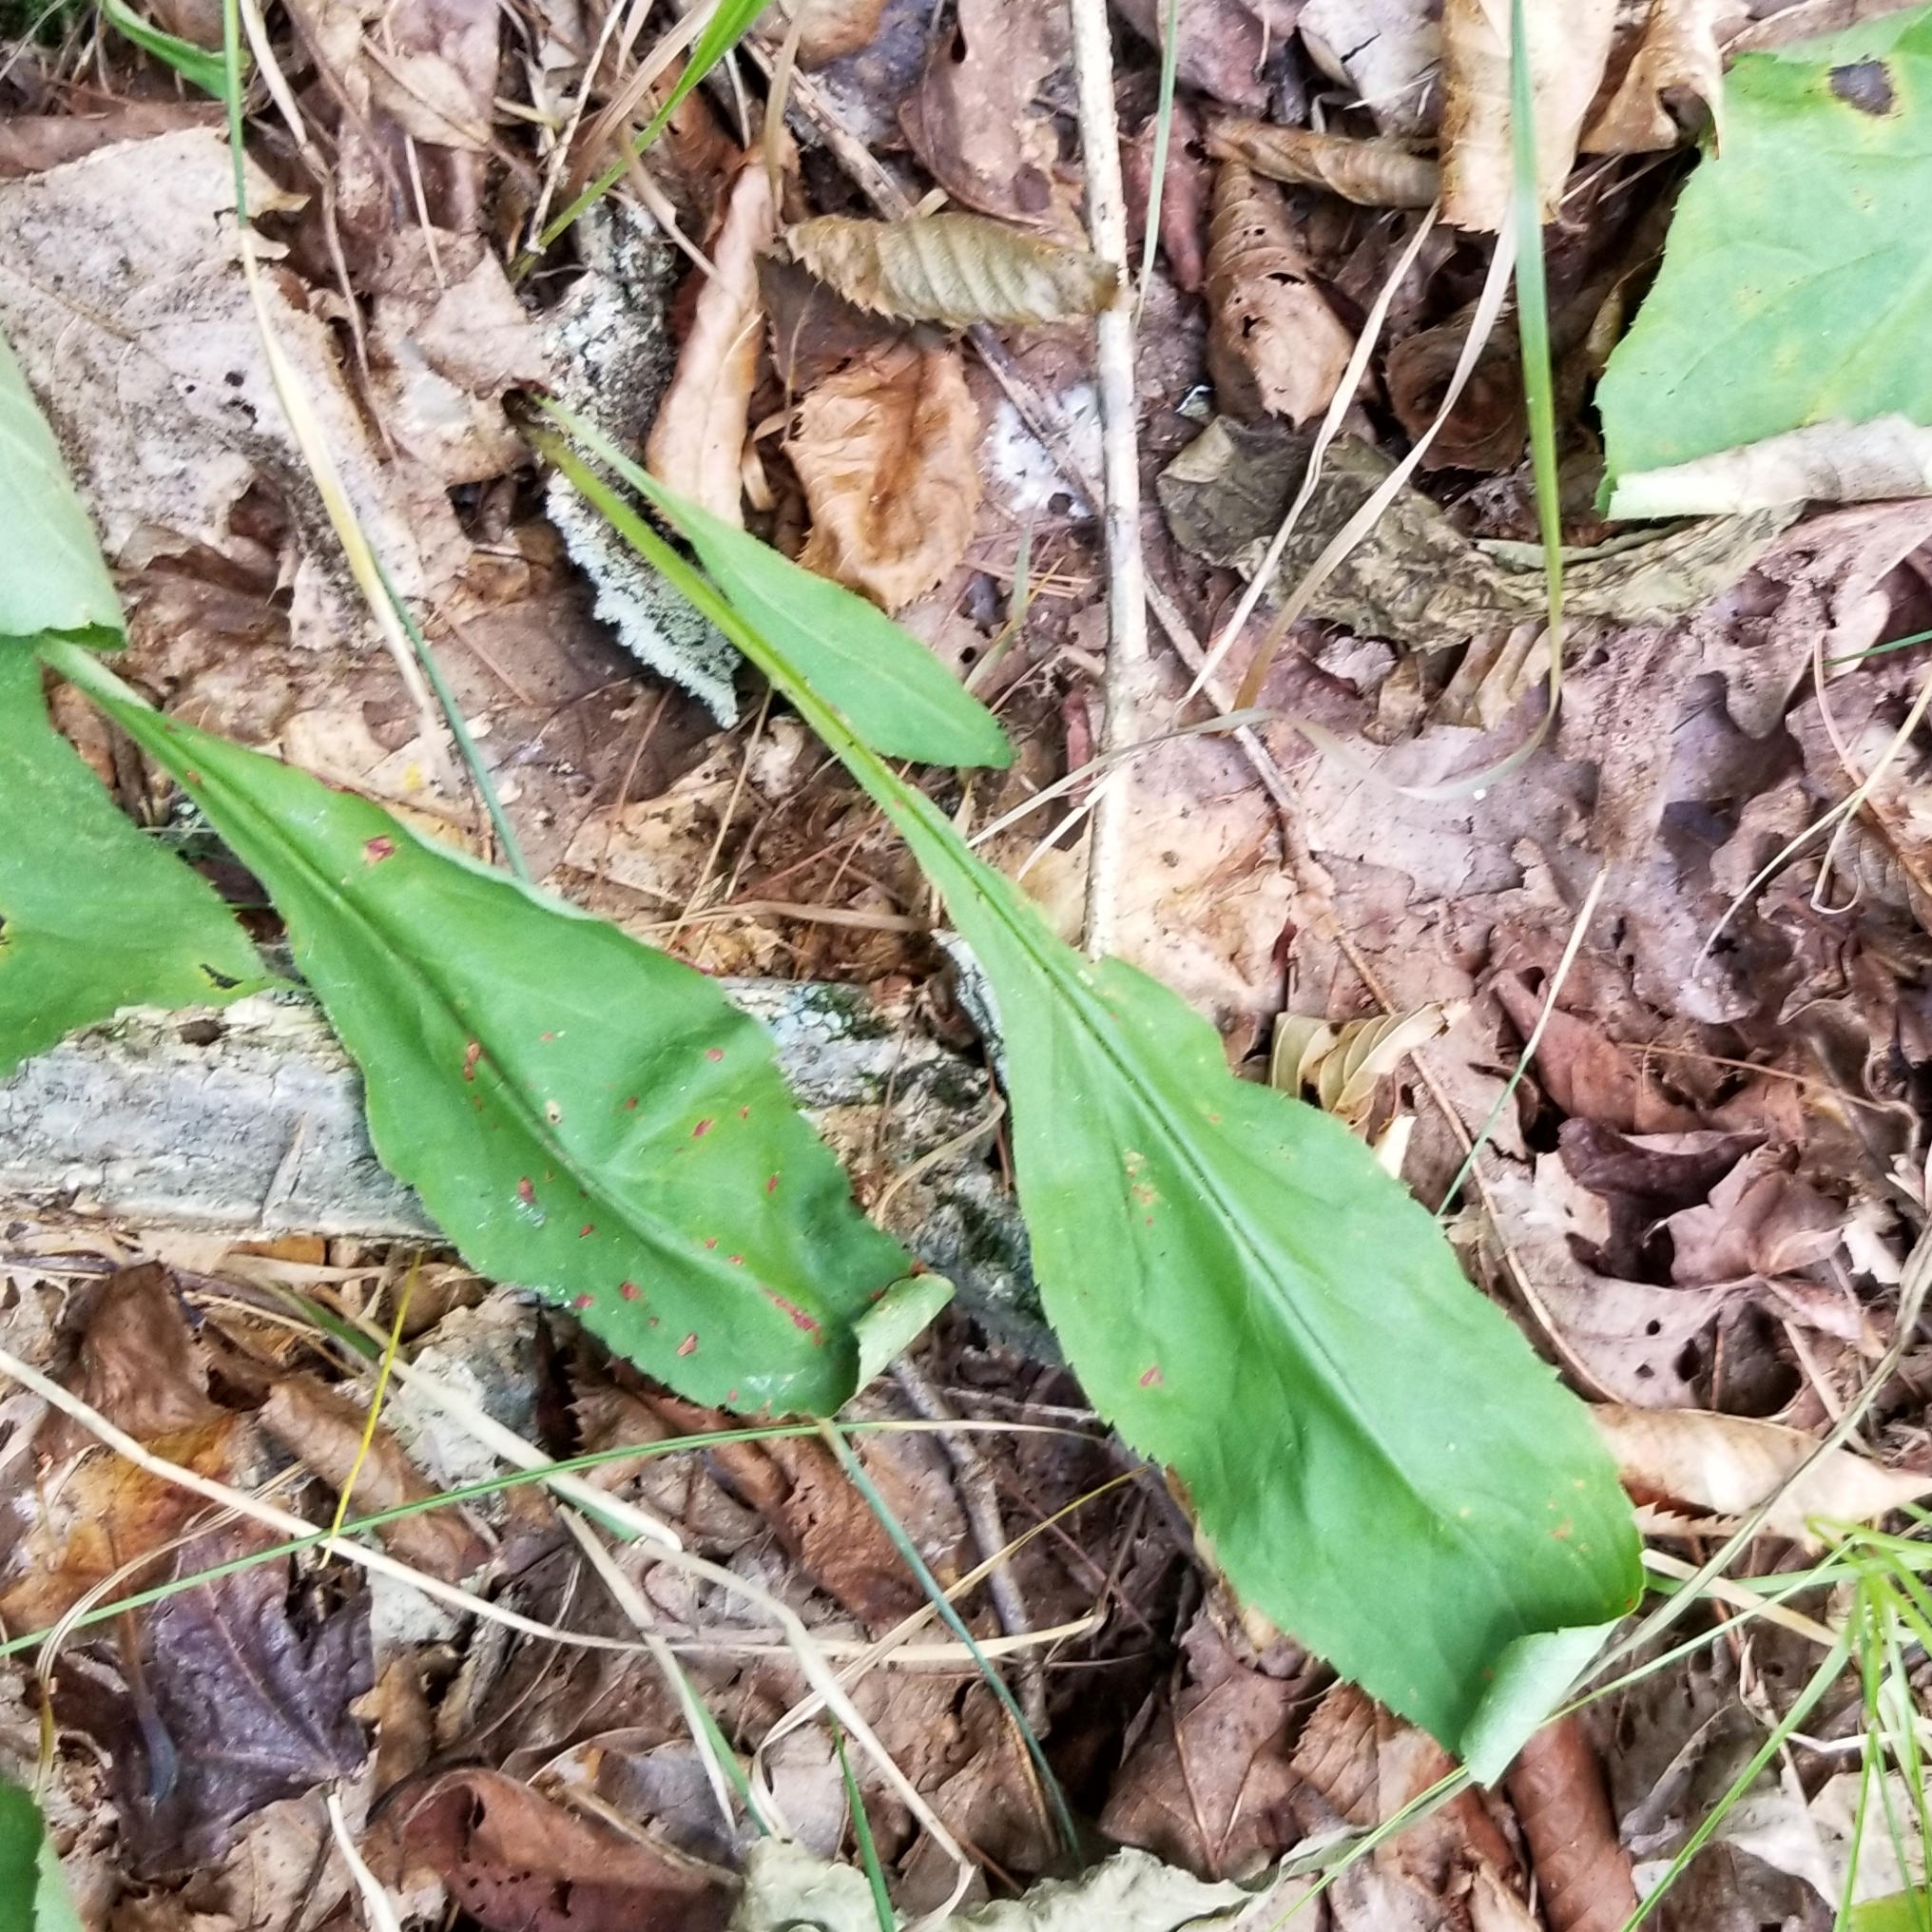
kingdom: Plantae
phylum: Tracheophyta
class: Magnoliopsida
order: Asterales
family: Asteraceae
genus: Solidago
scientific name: Solidago squarrosa
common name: Stout goldenrod
